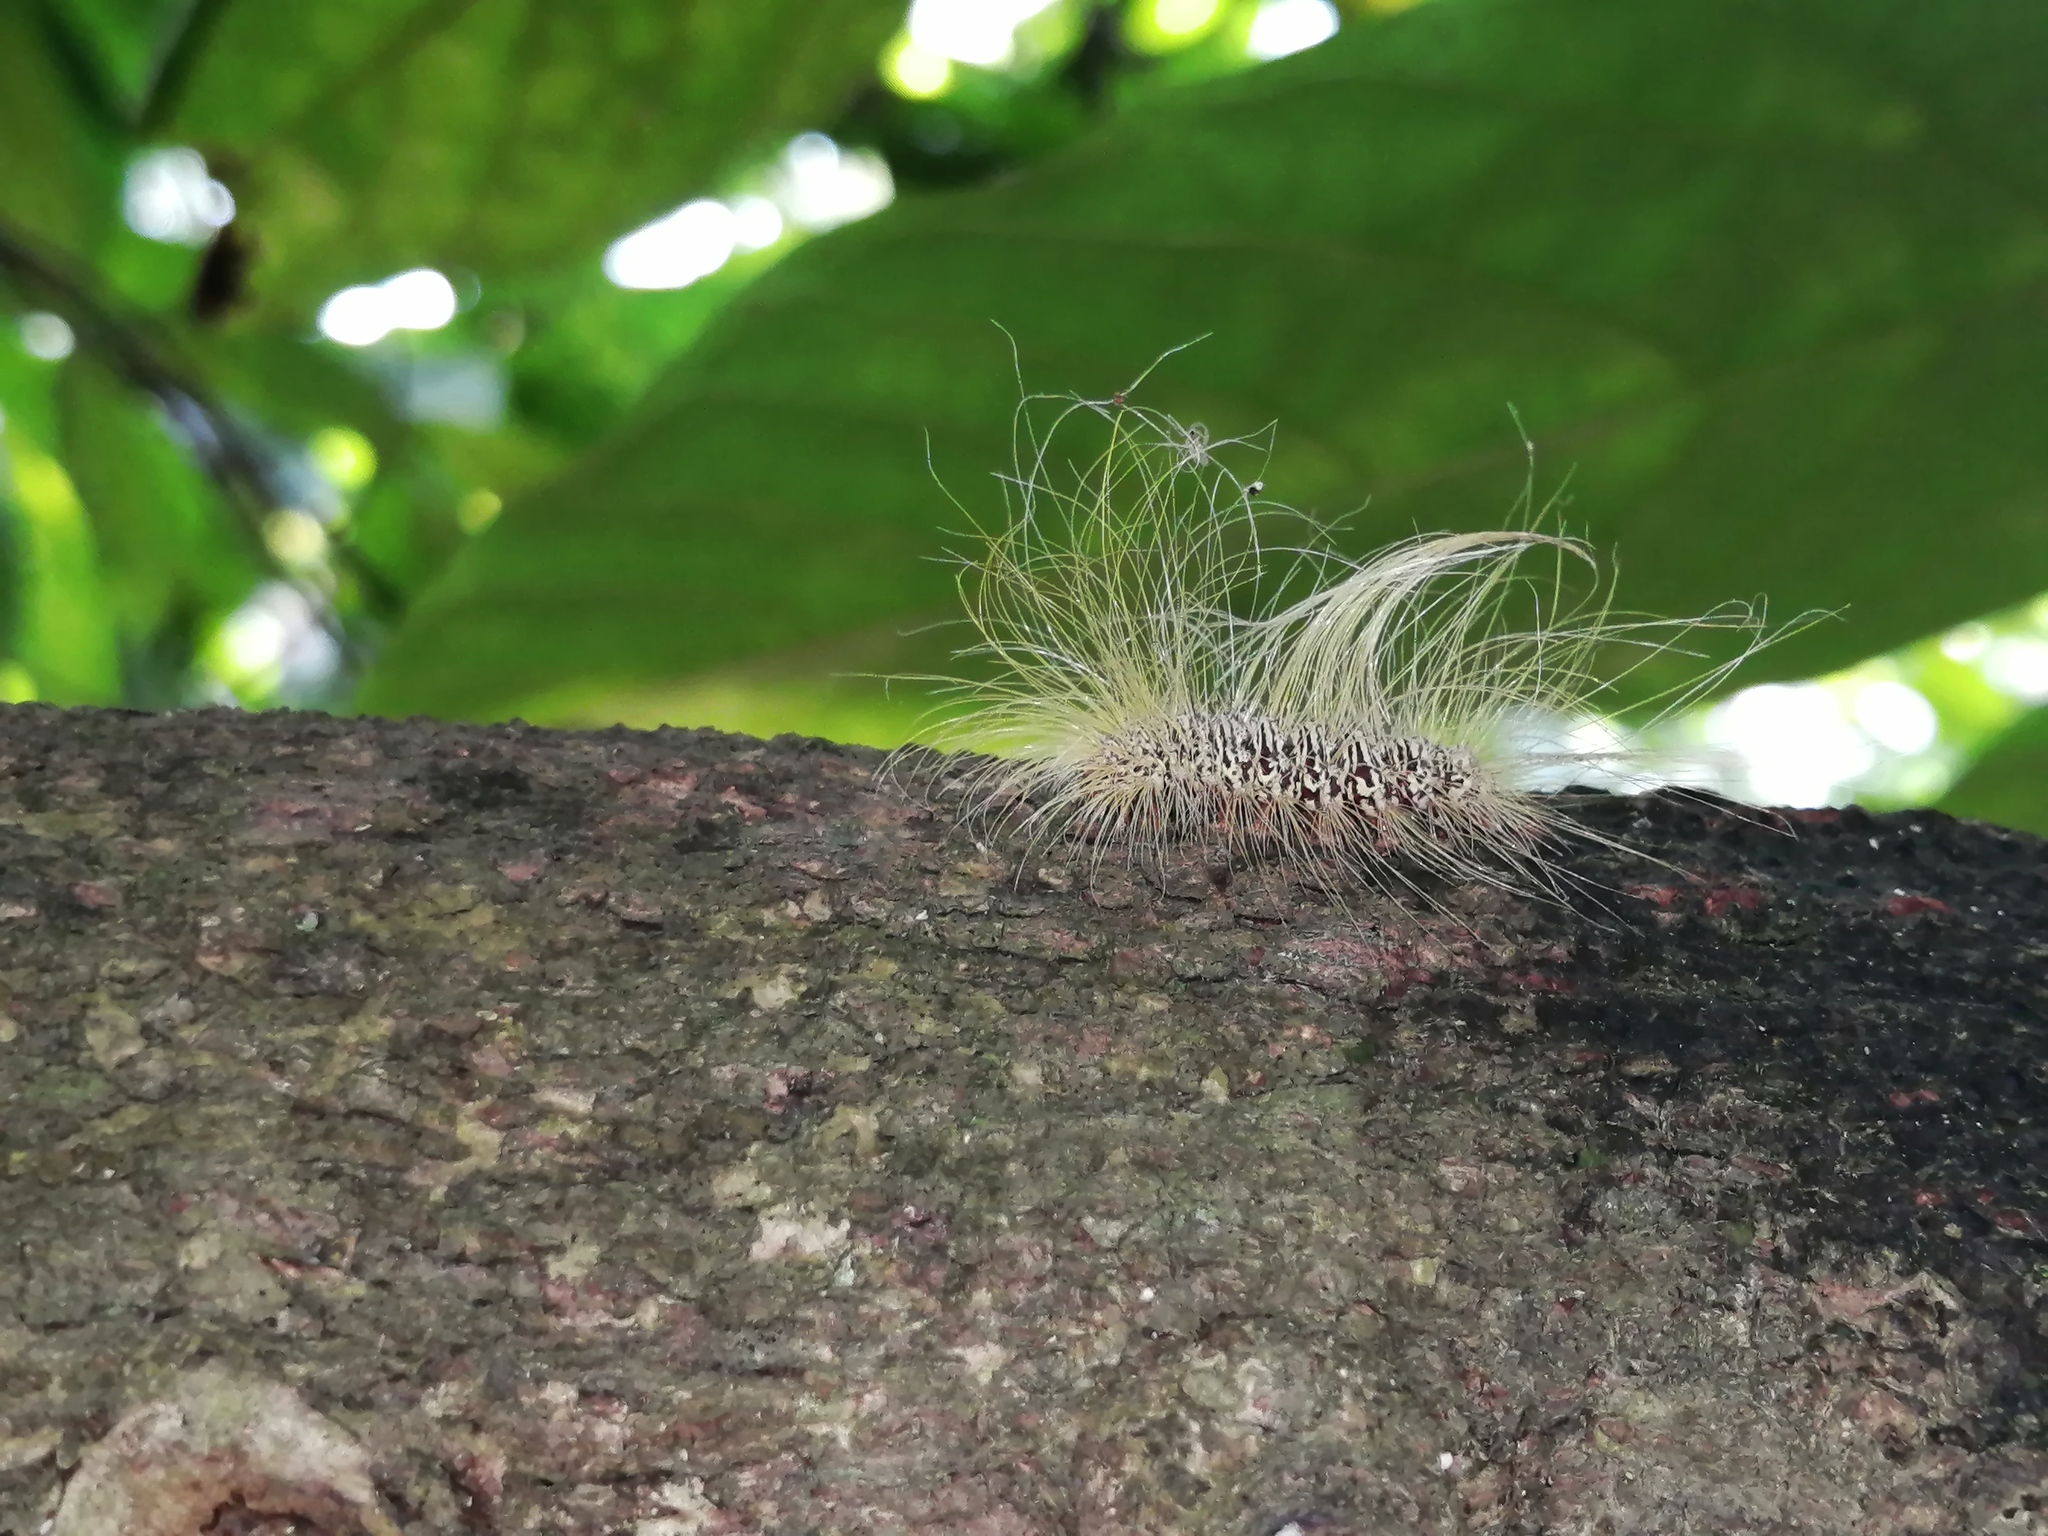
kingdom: Animalia
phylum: Arthropoda
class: Insecta
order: Lepidoptera
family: Erebidae
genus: Eudesmia
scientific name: Eudesmia menea
